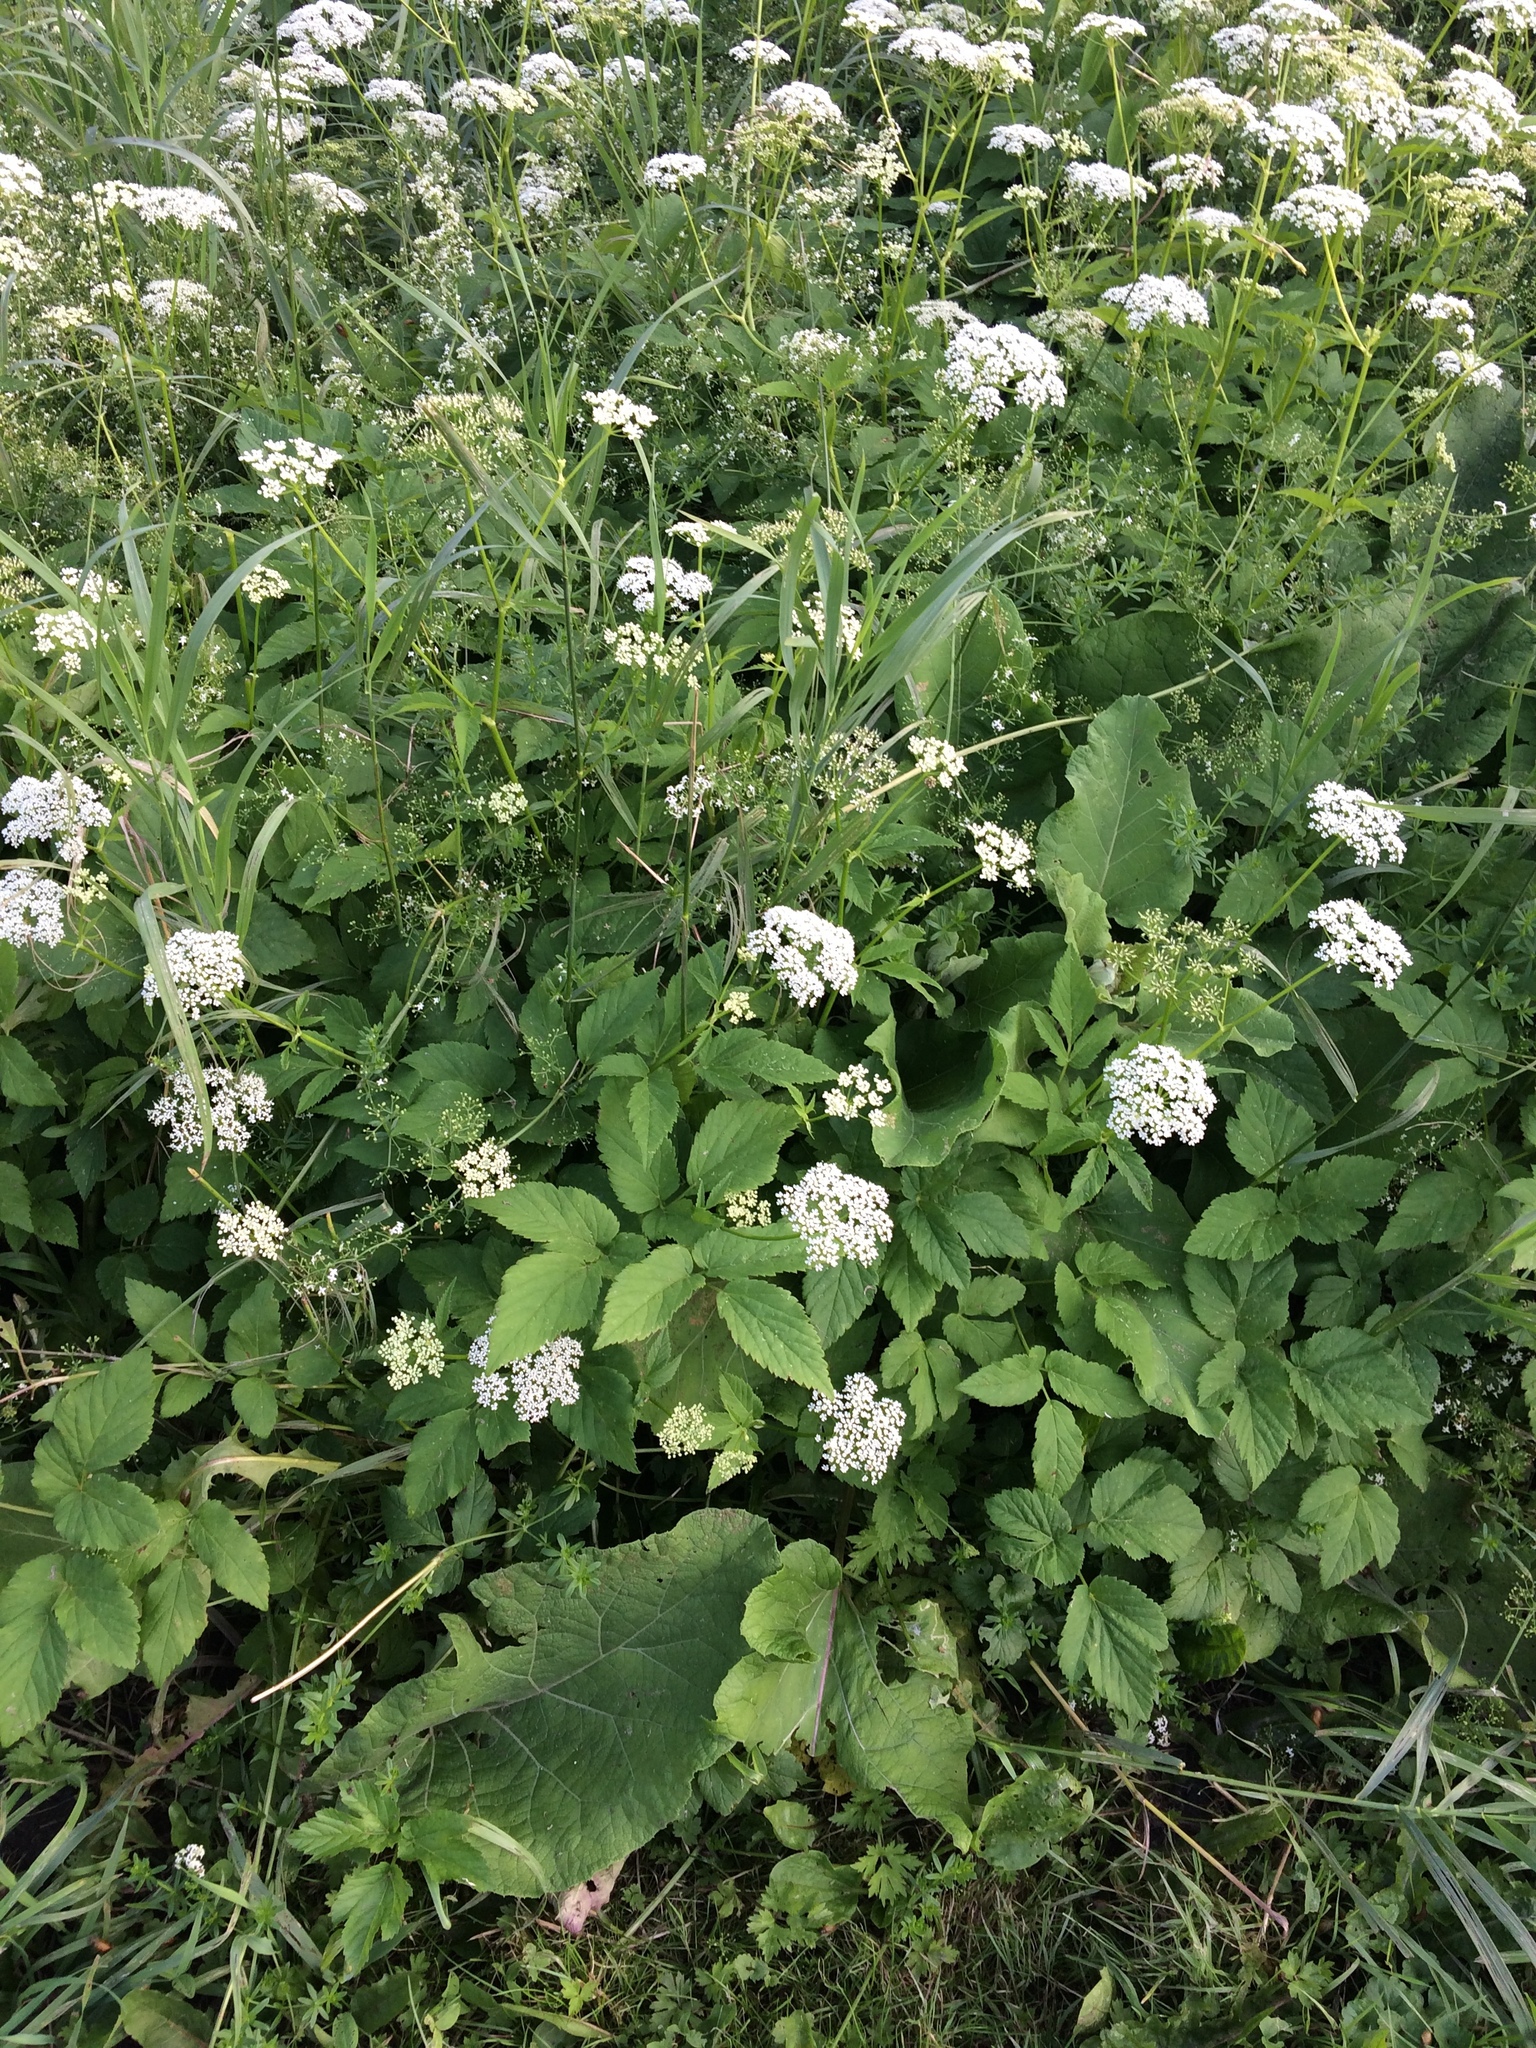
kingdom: Plantae
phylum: Tracheophyta
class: Magnoliopsida
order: Apiales
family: Apiaceae
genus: Aegopodium
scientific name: Aegopodium podagraria
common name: Ground-elder
